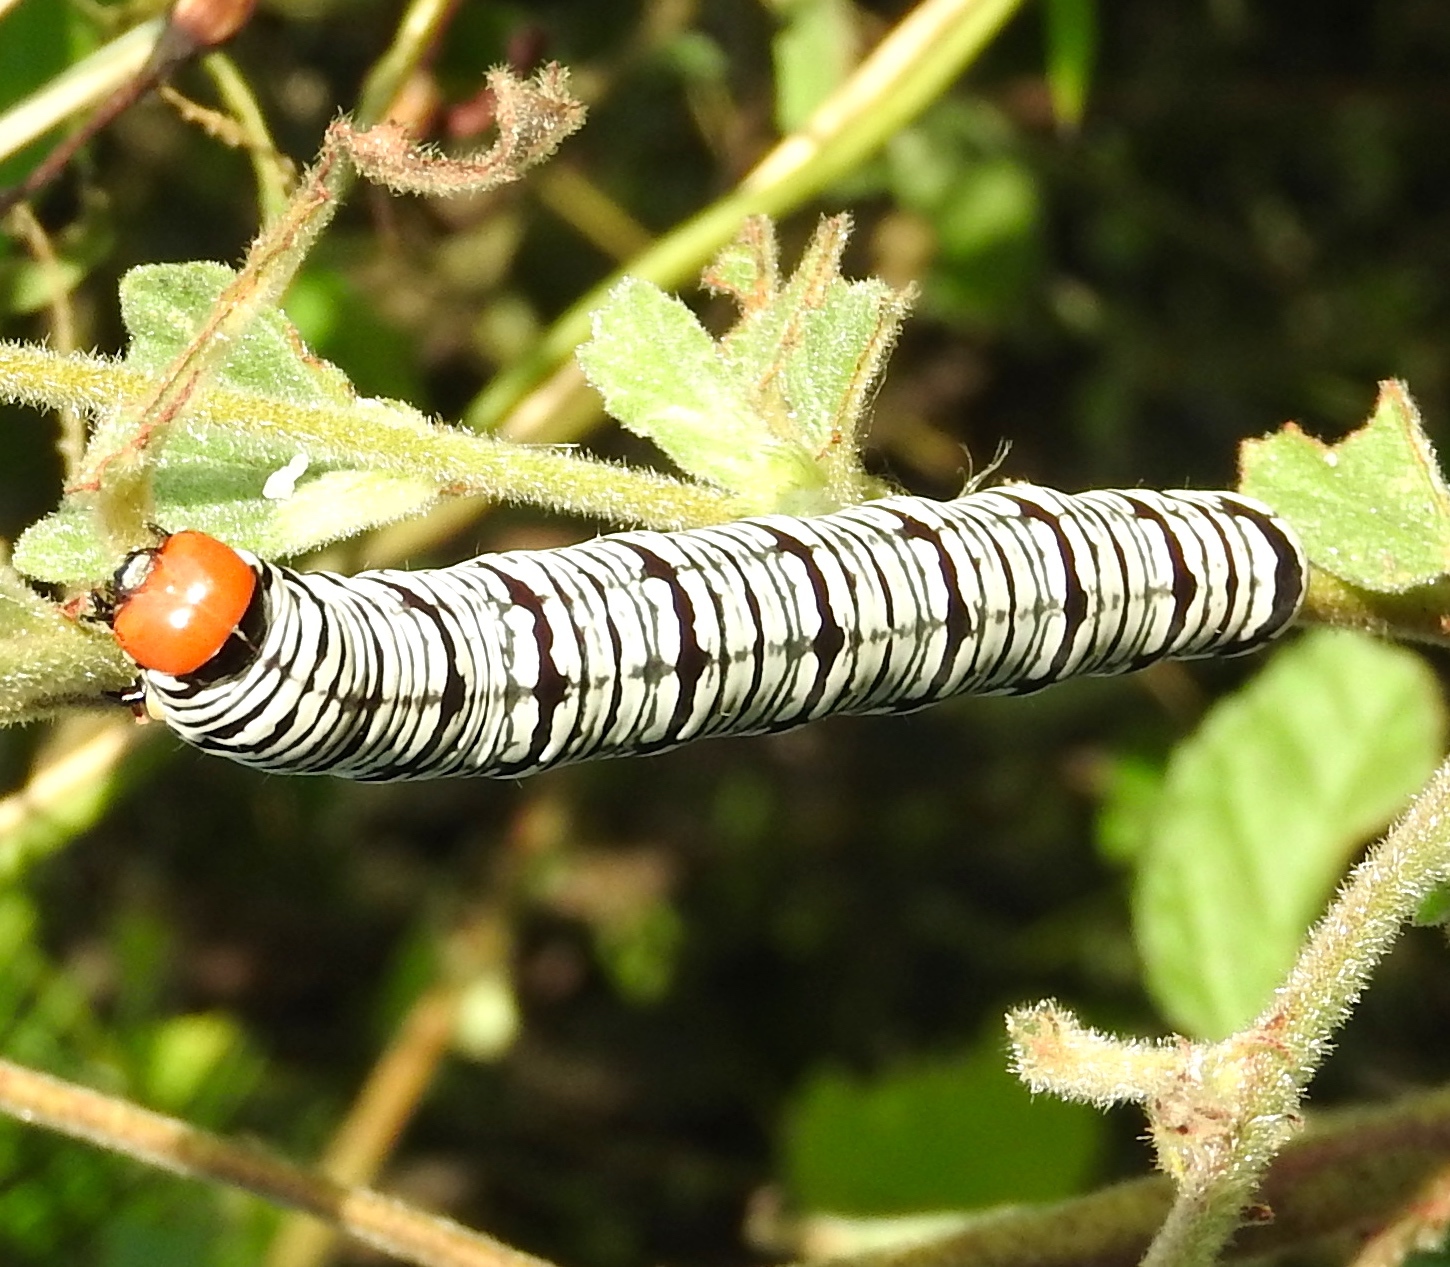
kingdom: Animalia
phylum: Arthropoda
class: Insecta
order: Lepidoptera
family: Erebidae
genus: Diphthera
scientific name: Diphthera festiva
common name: Hieroglyphic moth
